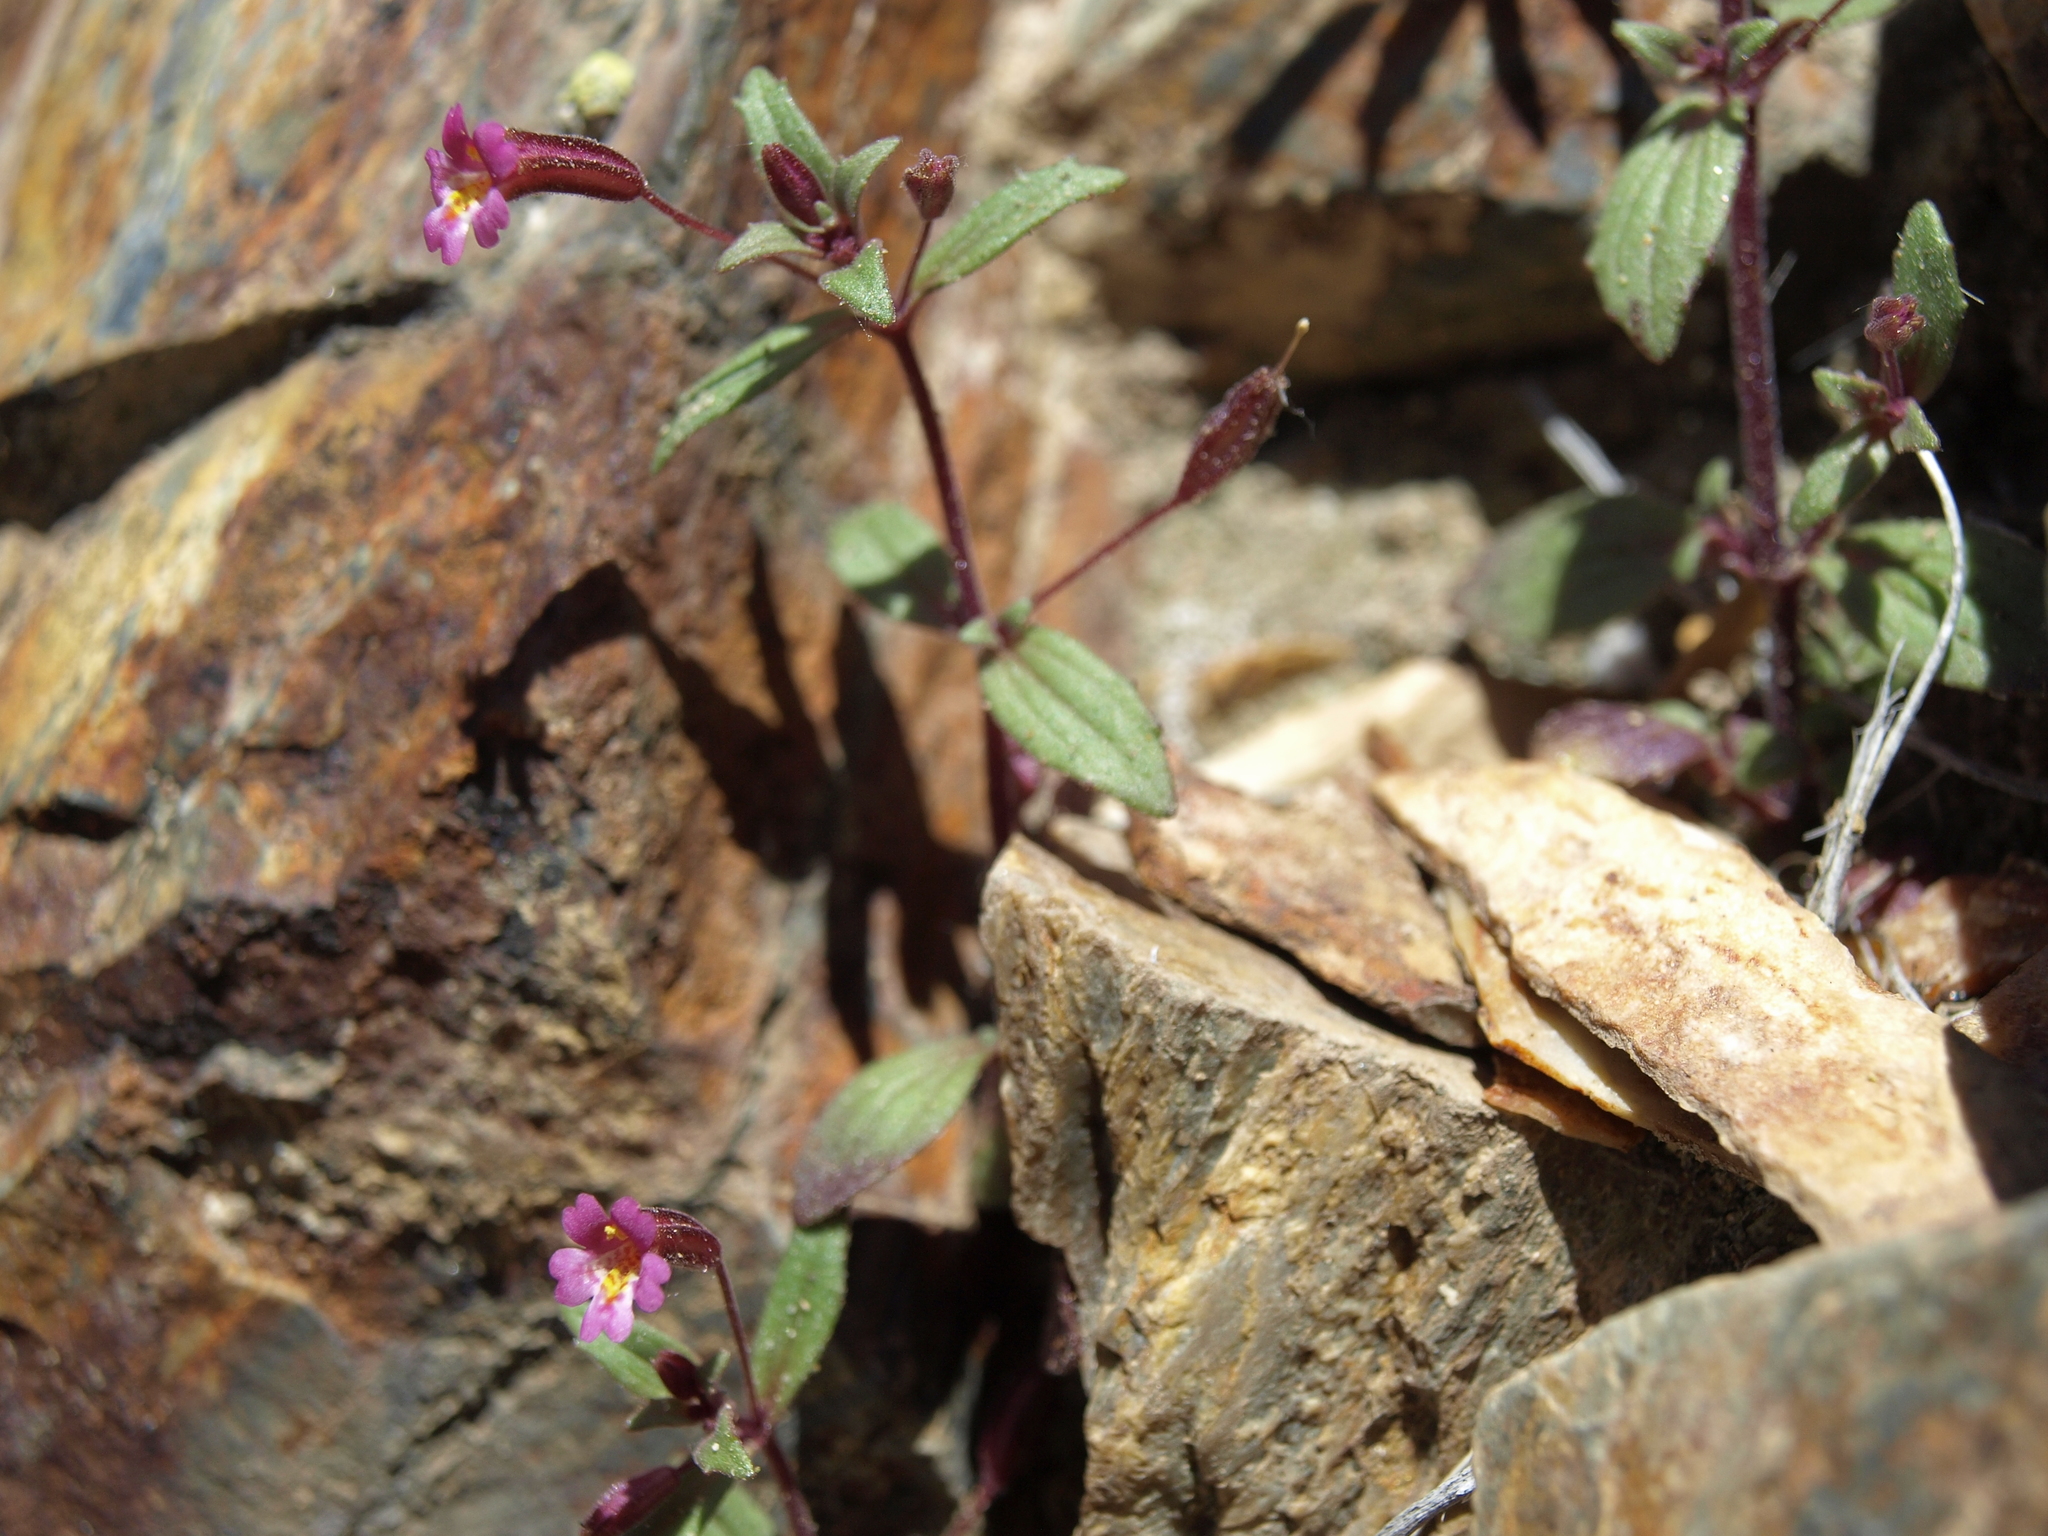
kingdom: Plantae
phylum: Tracheophyta
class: Magnoliopsida
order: Lamiales
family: Phrymaceae
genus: Erythranthe
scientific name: Erythranthe rubella
